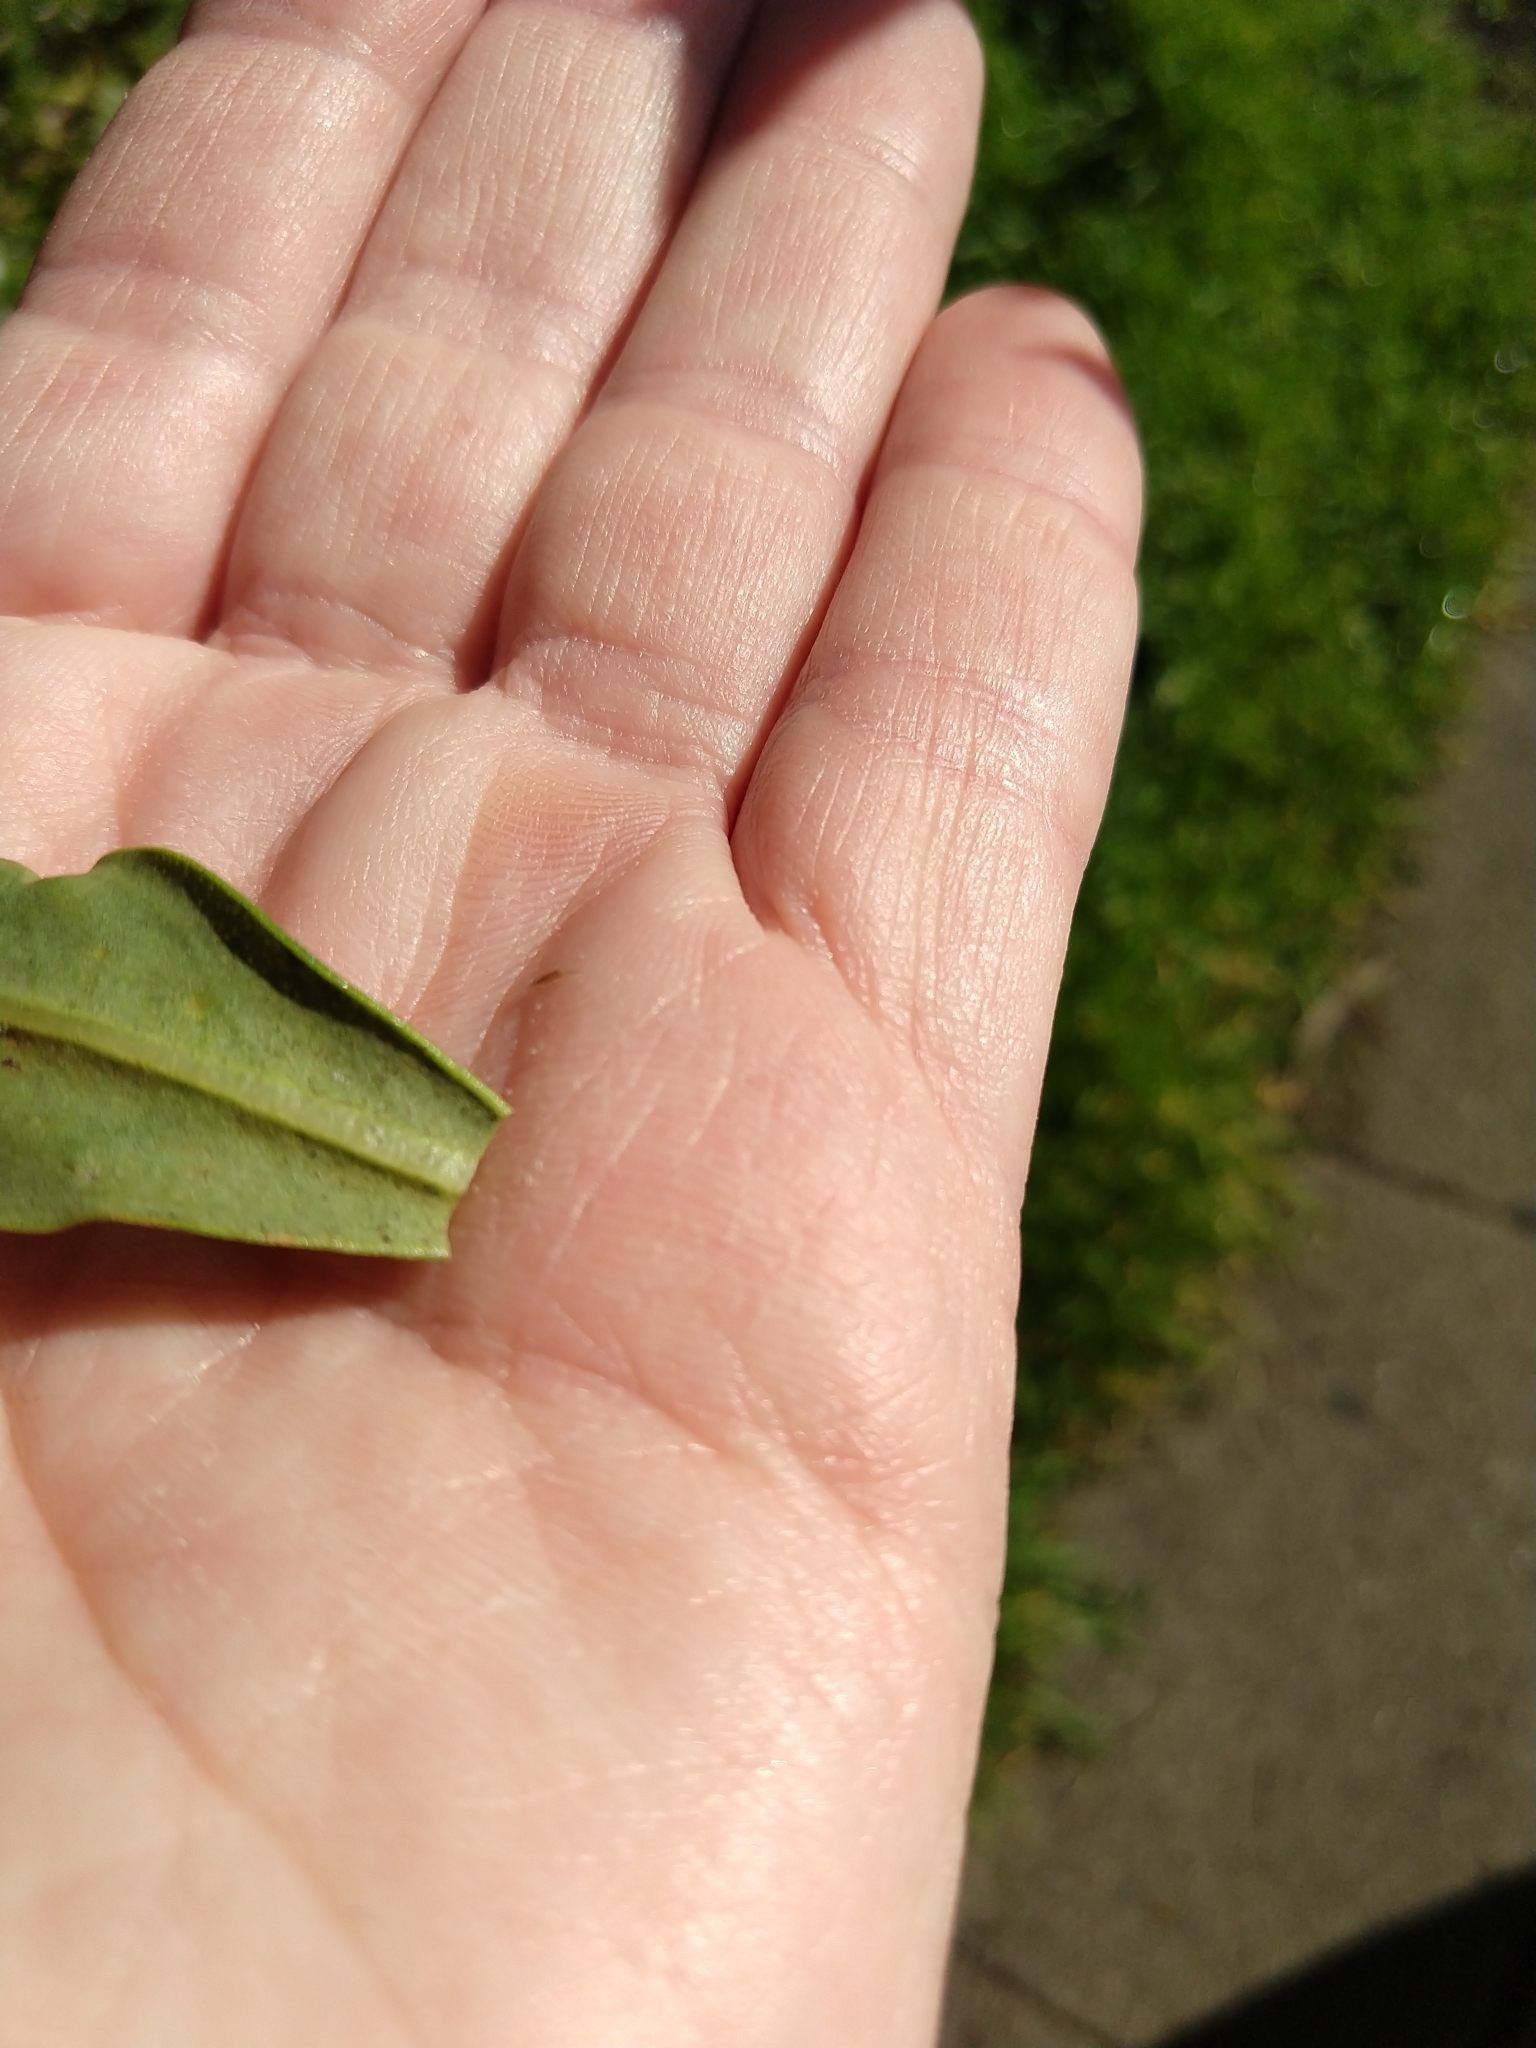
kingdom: Animalia
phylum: Arthropoda
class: Insecta
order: Thysanoptera
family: Phlaeothripidae
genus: Klambothrips
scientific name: Klambothrips myopori
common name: Myoporum thrips
